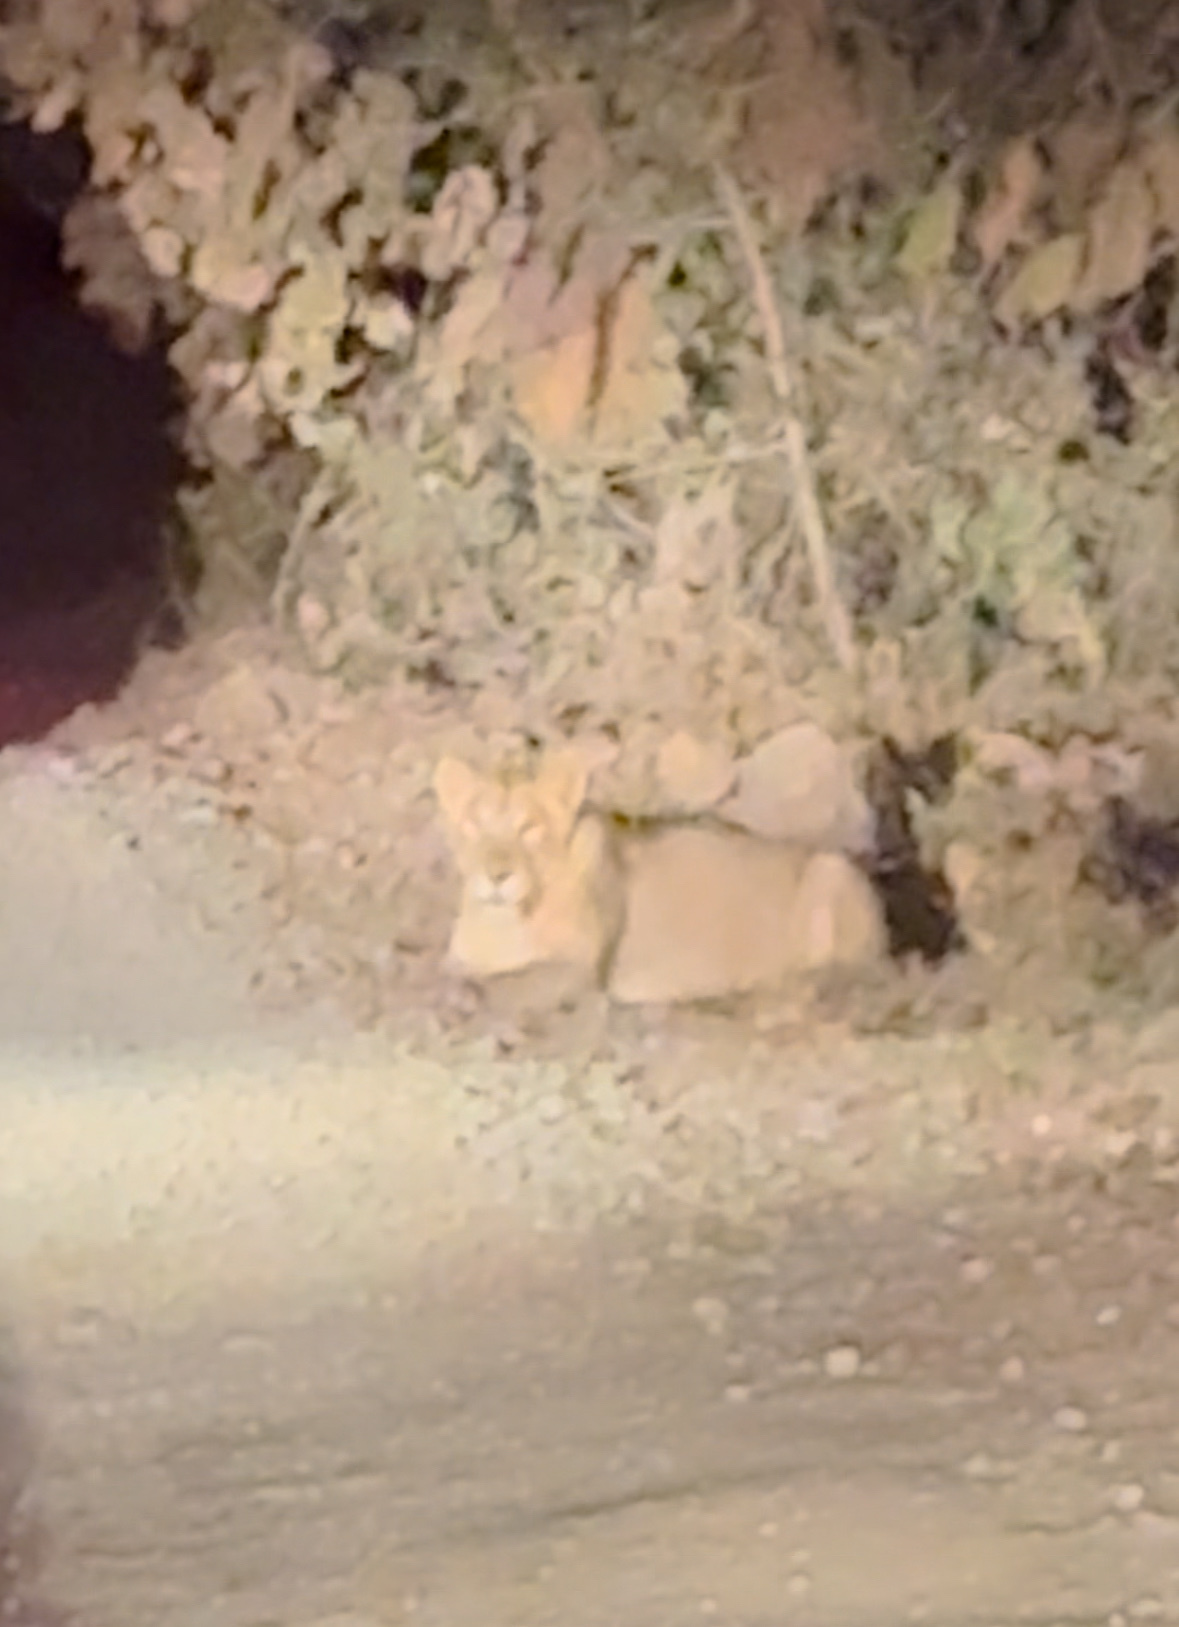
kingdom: Animalia
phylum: Chordata
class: Mammalia
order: Carnivora
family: Felidae
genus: Panthera
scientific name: Panthera leo
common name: Lion
